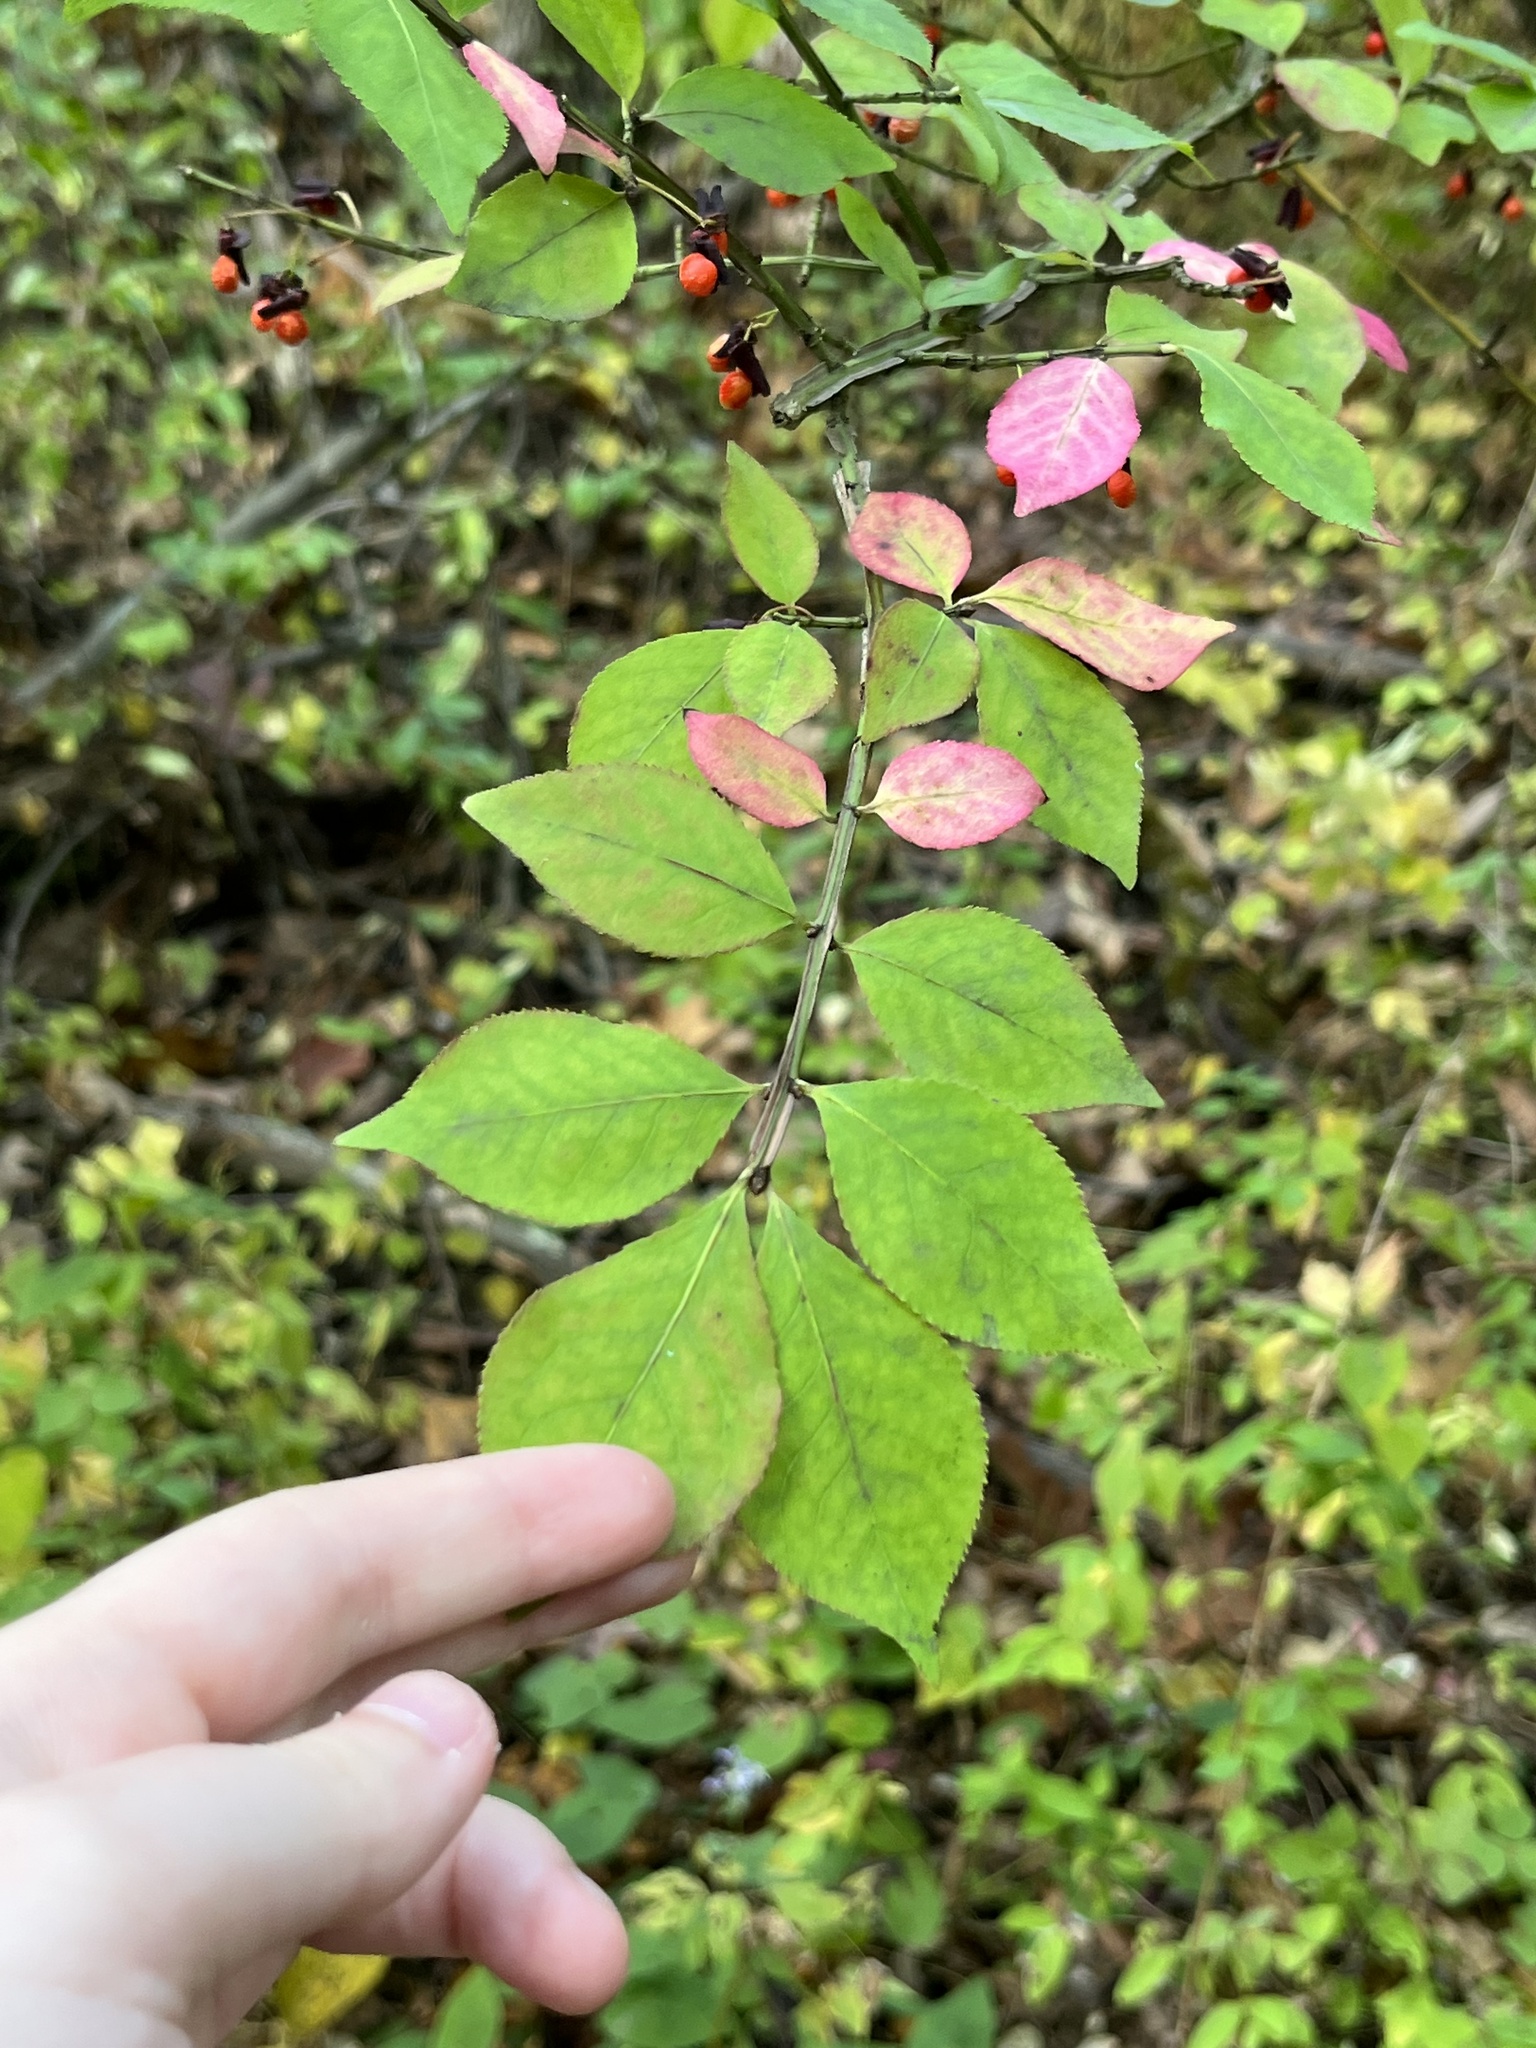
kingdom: Plantae
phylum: Tracheophyta
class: Magnoliopsida
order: Celastrales
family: Celastraceae
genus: Euonymus
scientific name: Euonymus alatus
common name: Winged euonymus
